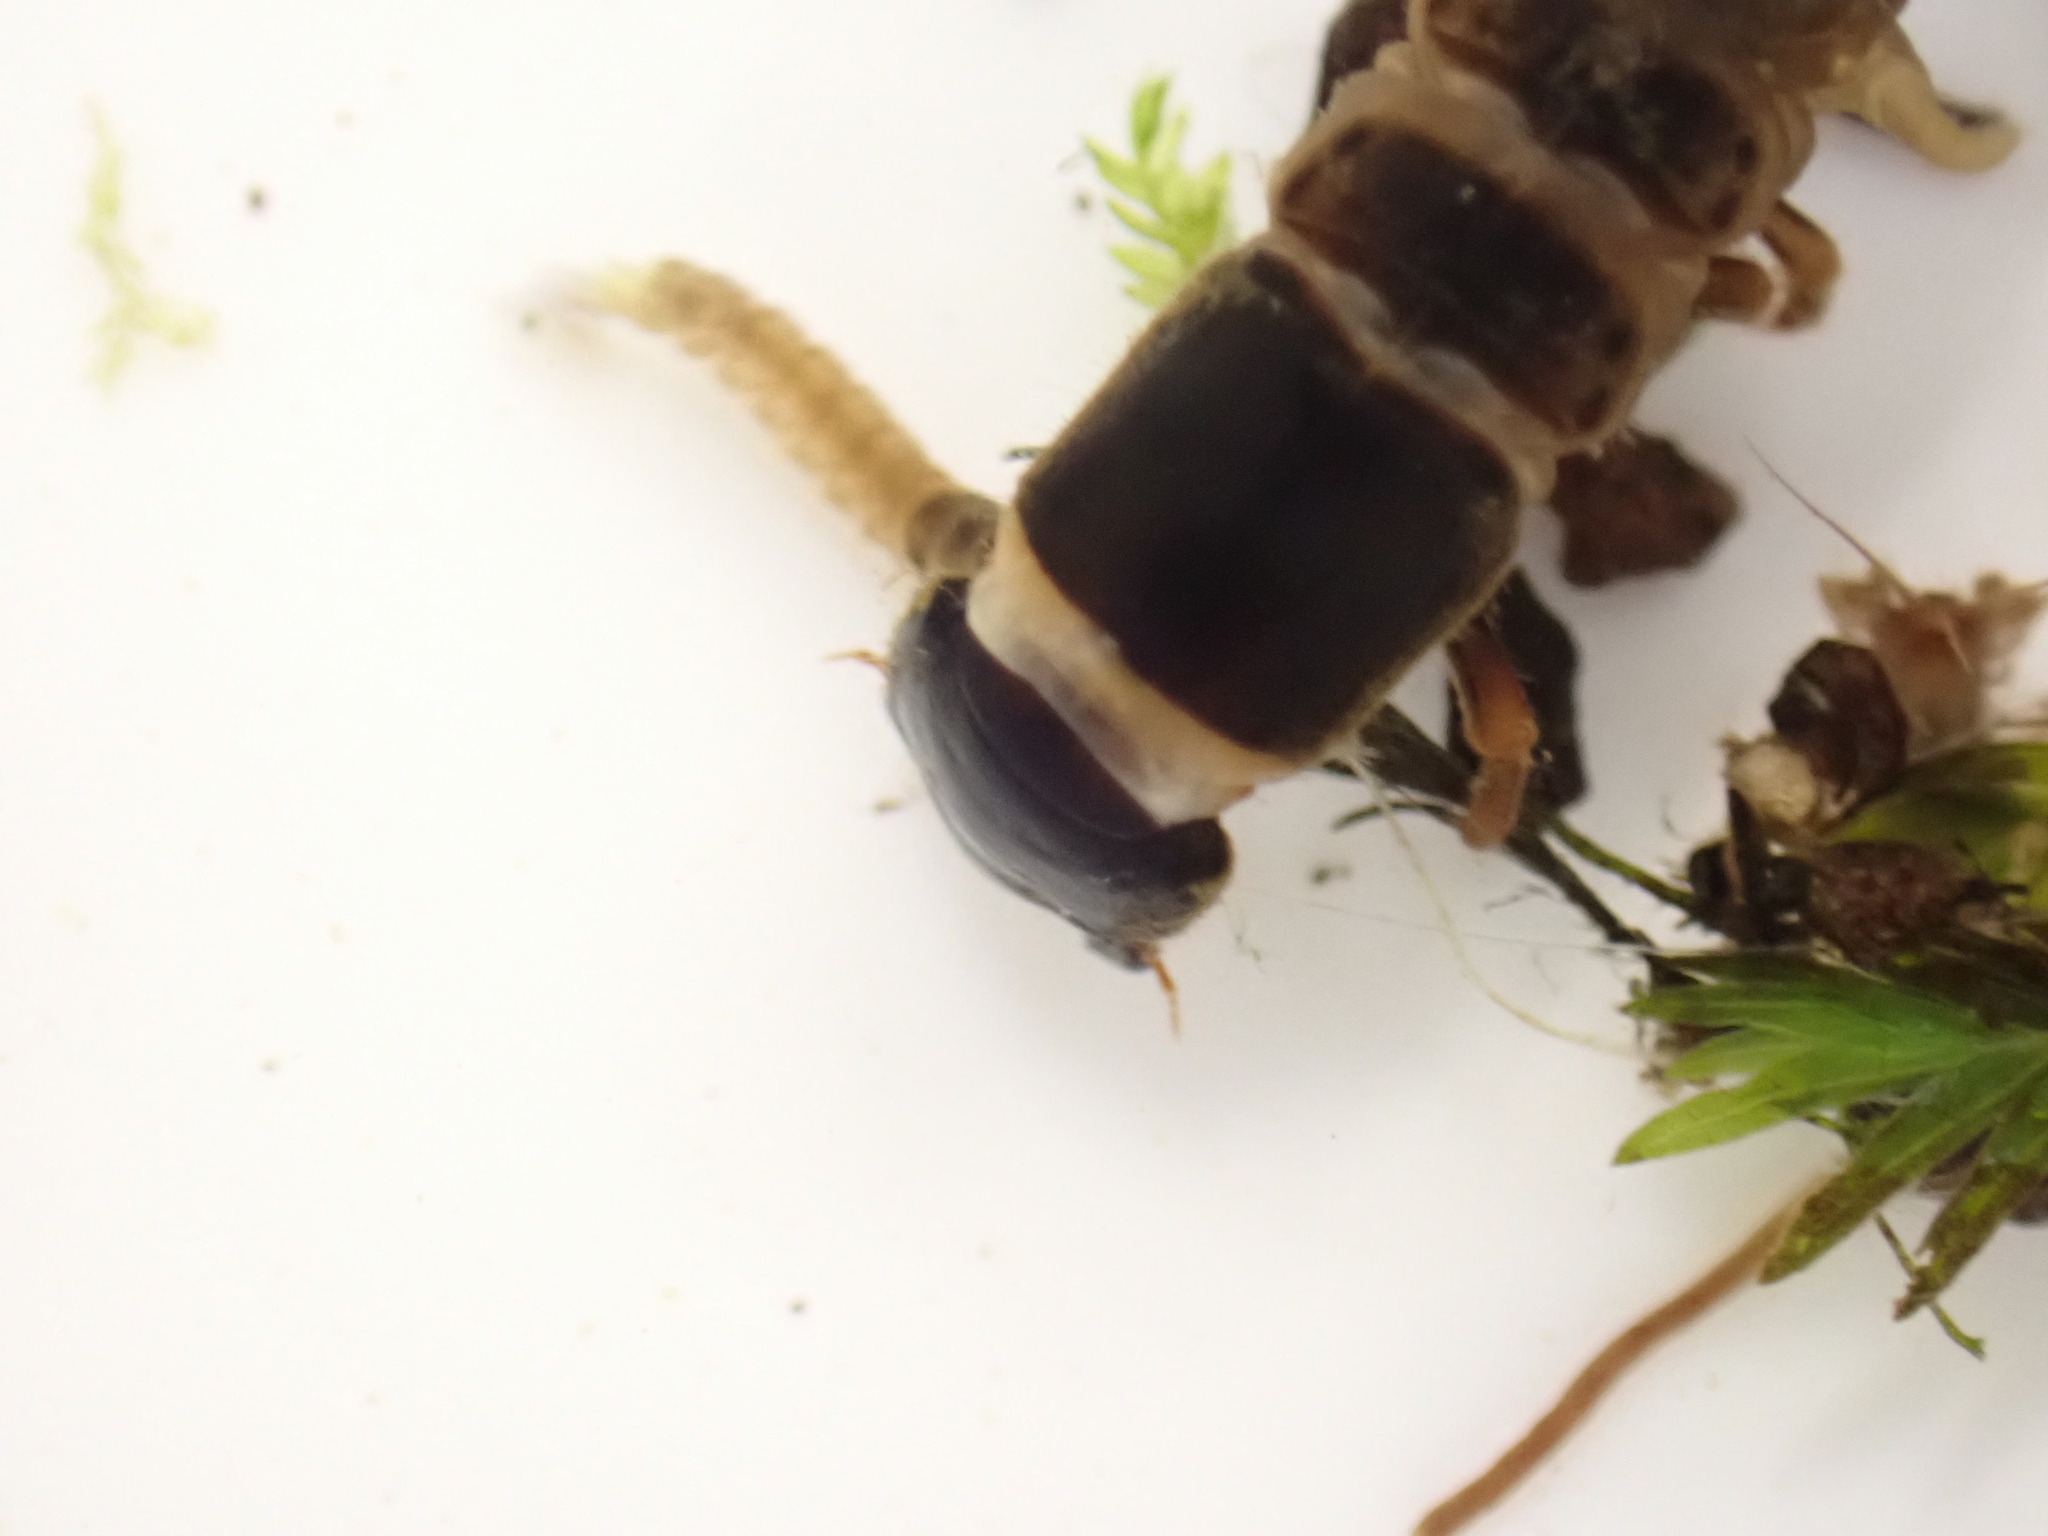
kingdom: Animalia
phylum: Arthropoda
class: Insecta
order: Megaloptera
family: Corydalidae
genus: Archichauliodes
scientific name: Archichauliodes diversus
